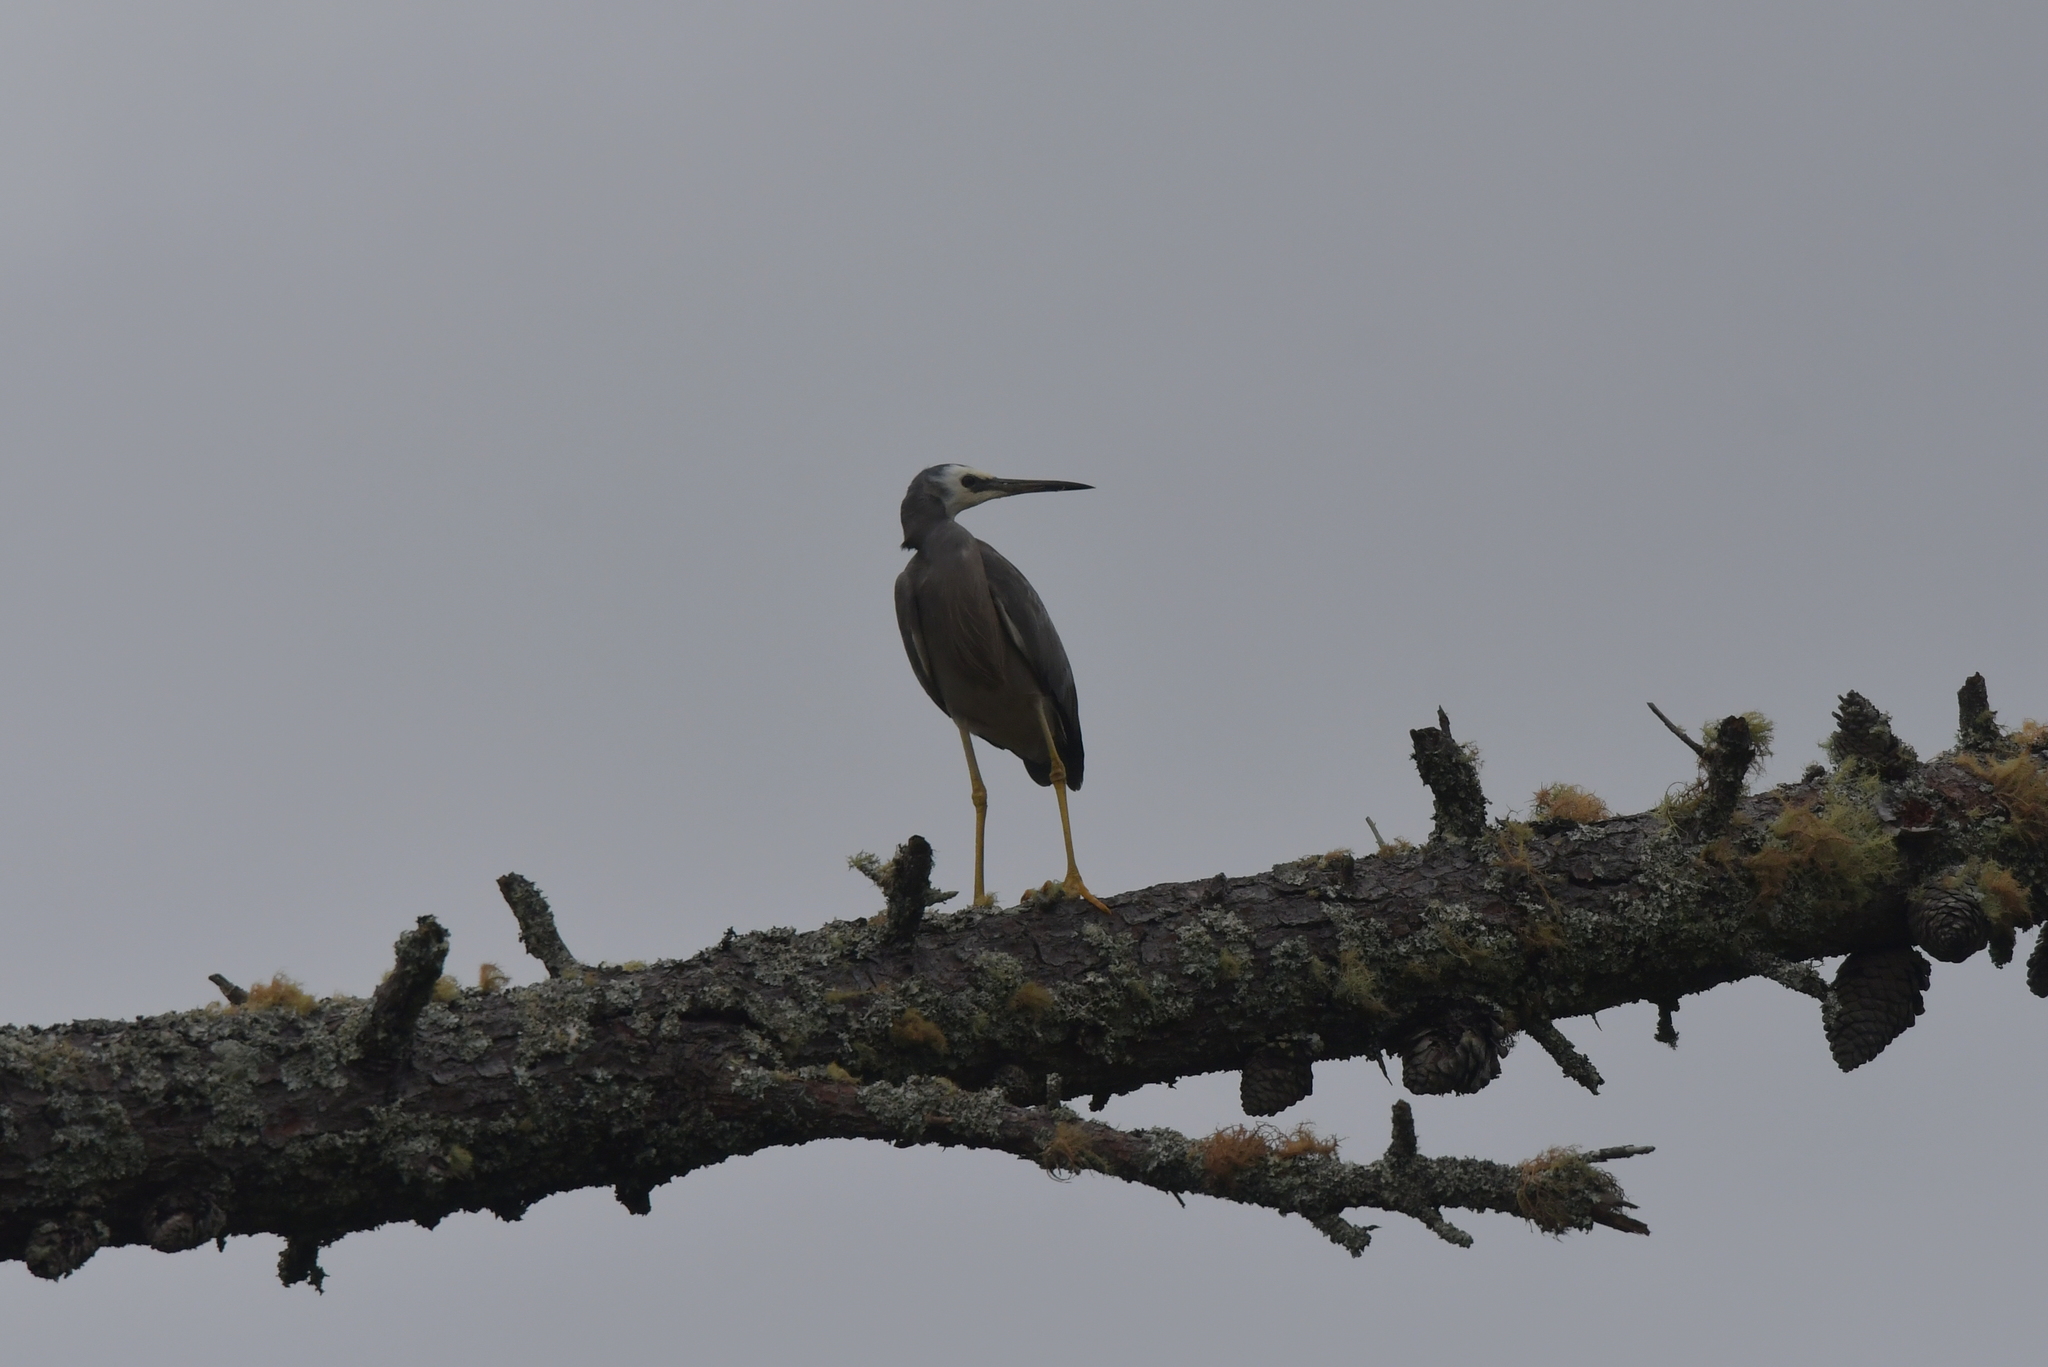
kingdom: Animalia
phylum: Chordata
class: Aves
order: Pelecaniformes
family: Ardeidae
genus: Egretta
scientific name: Egretta novaehollandiae
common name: White-faced heron
